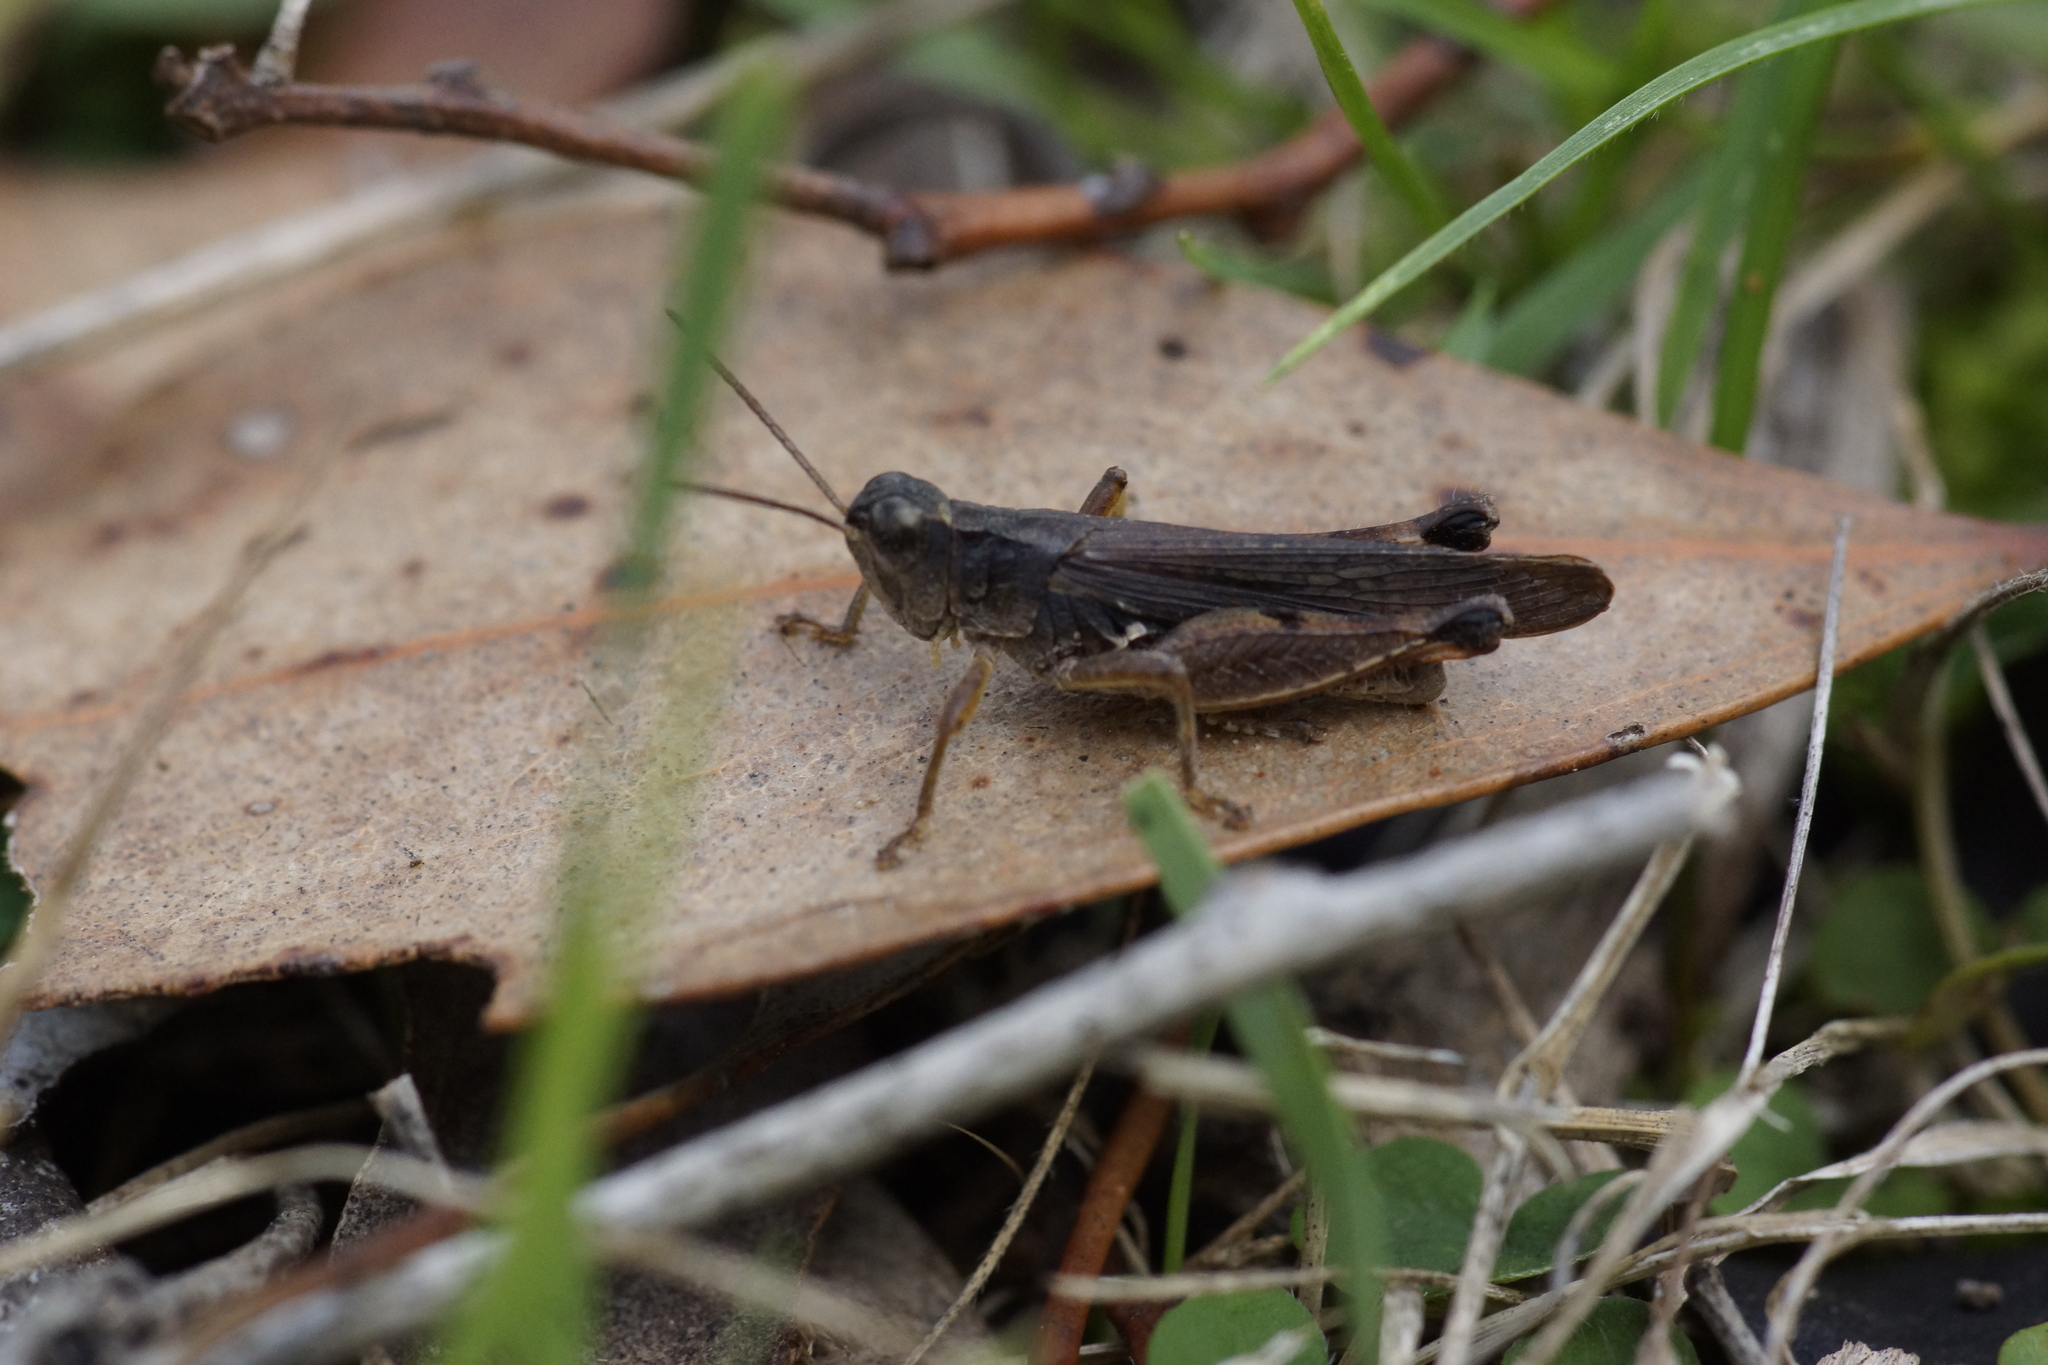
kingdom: Animalia
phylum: Arthropoda
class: Insecta
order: Orthoptera
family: Acrididae
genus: Phaulacridium
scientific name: Phaulacridium vittatum
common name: Wingless grasshopper
